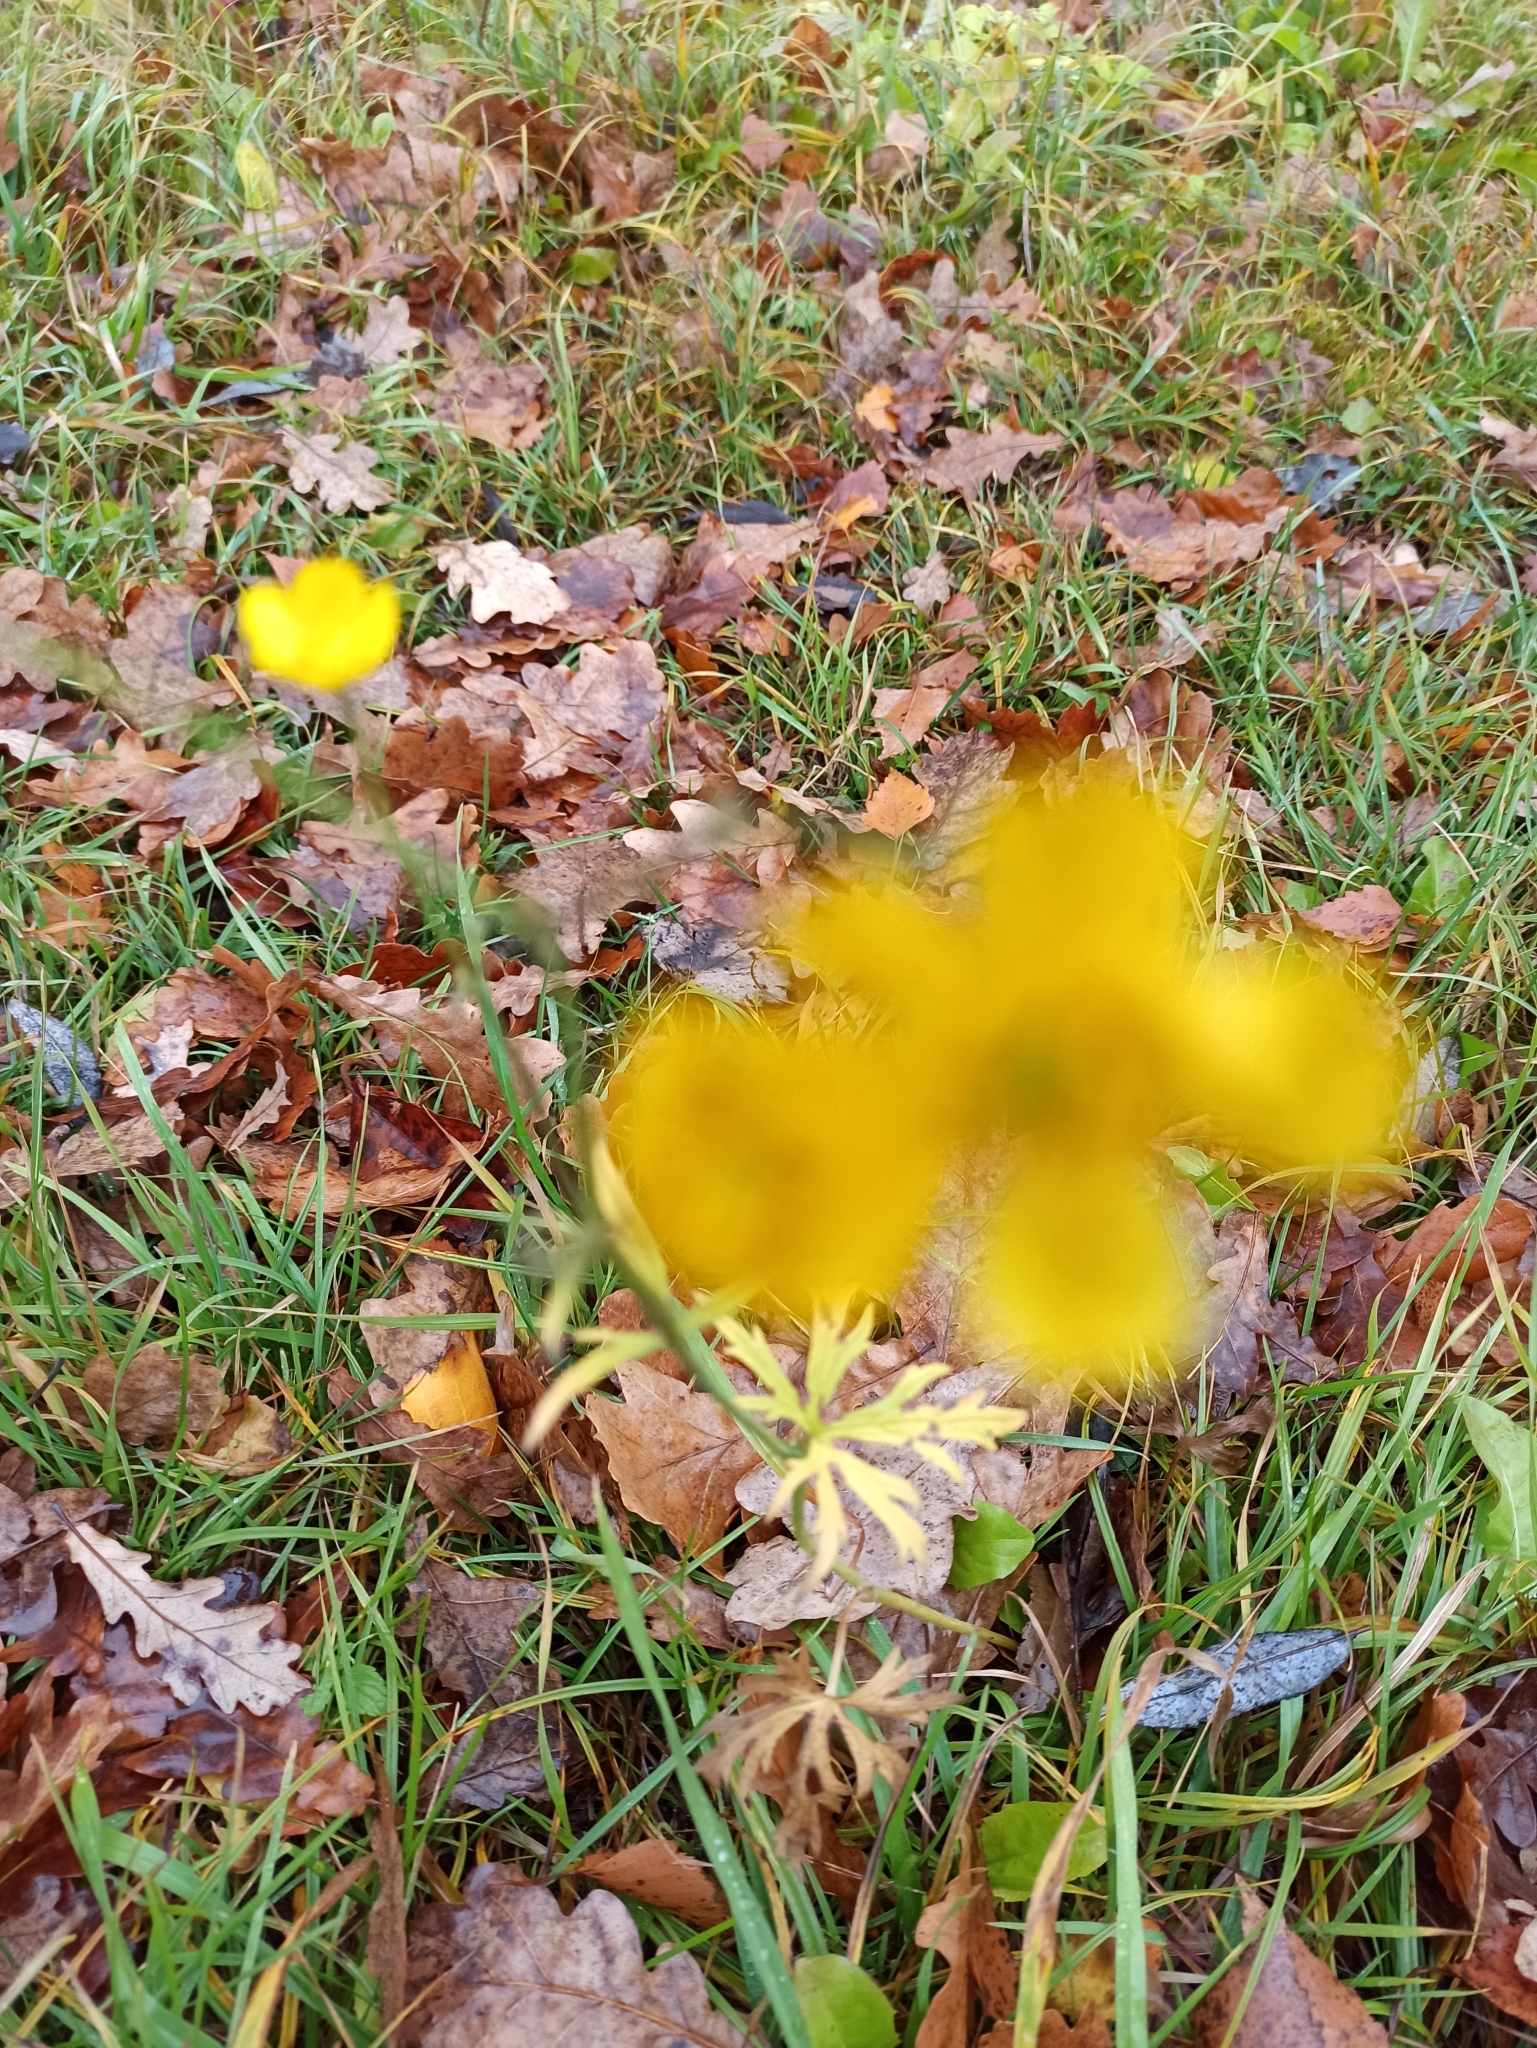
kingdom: Plantae
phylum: Tracheophyta
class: Magnoliopsida
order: Ranunculales
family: Ranunculaceae
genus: Ranunculus
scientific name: Ranunculus acris
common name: Meadow buttercup
